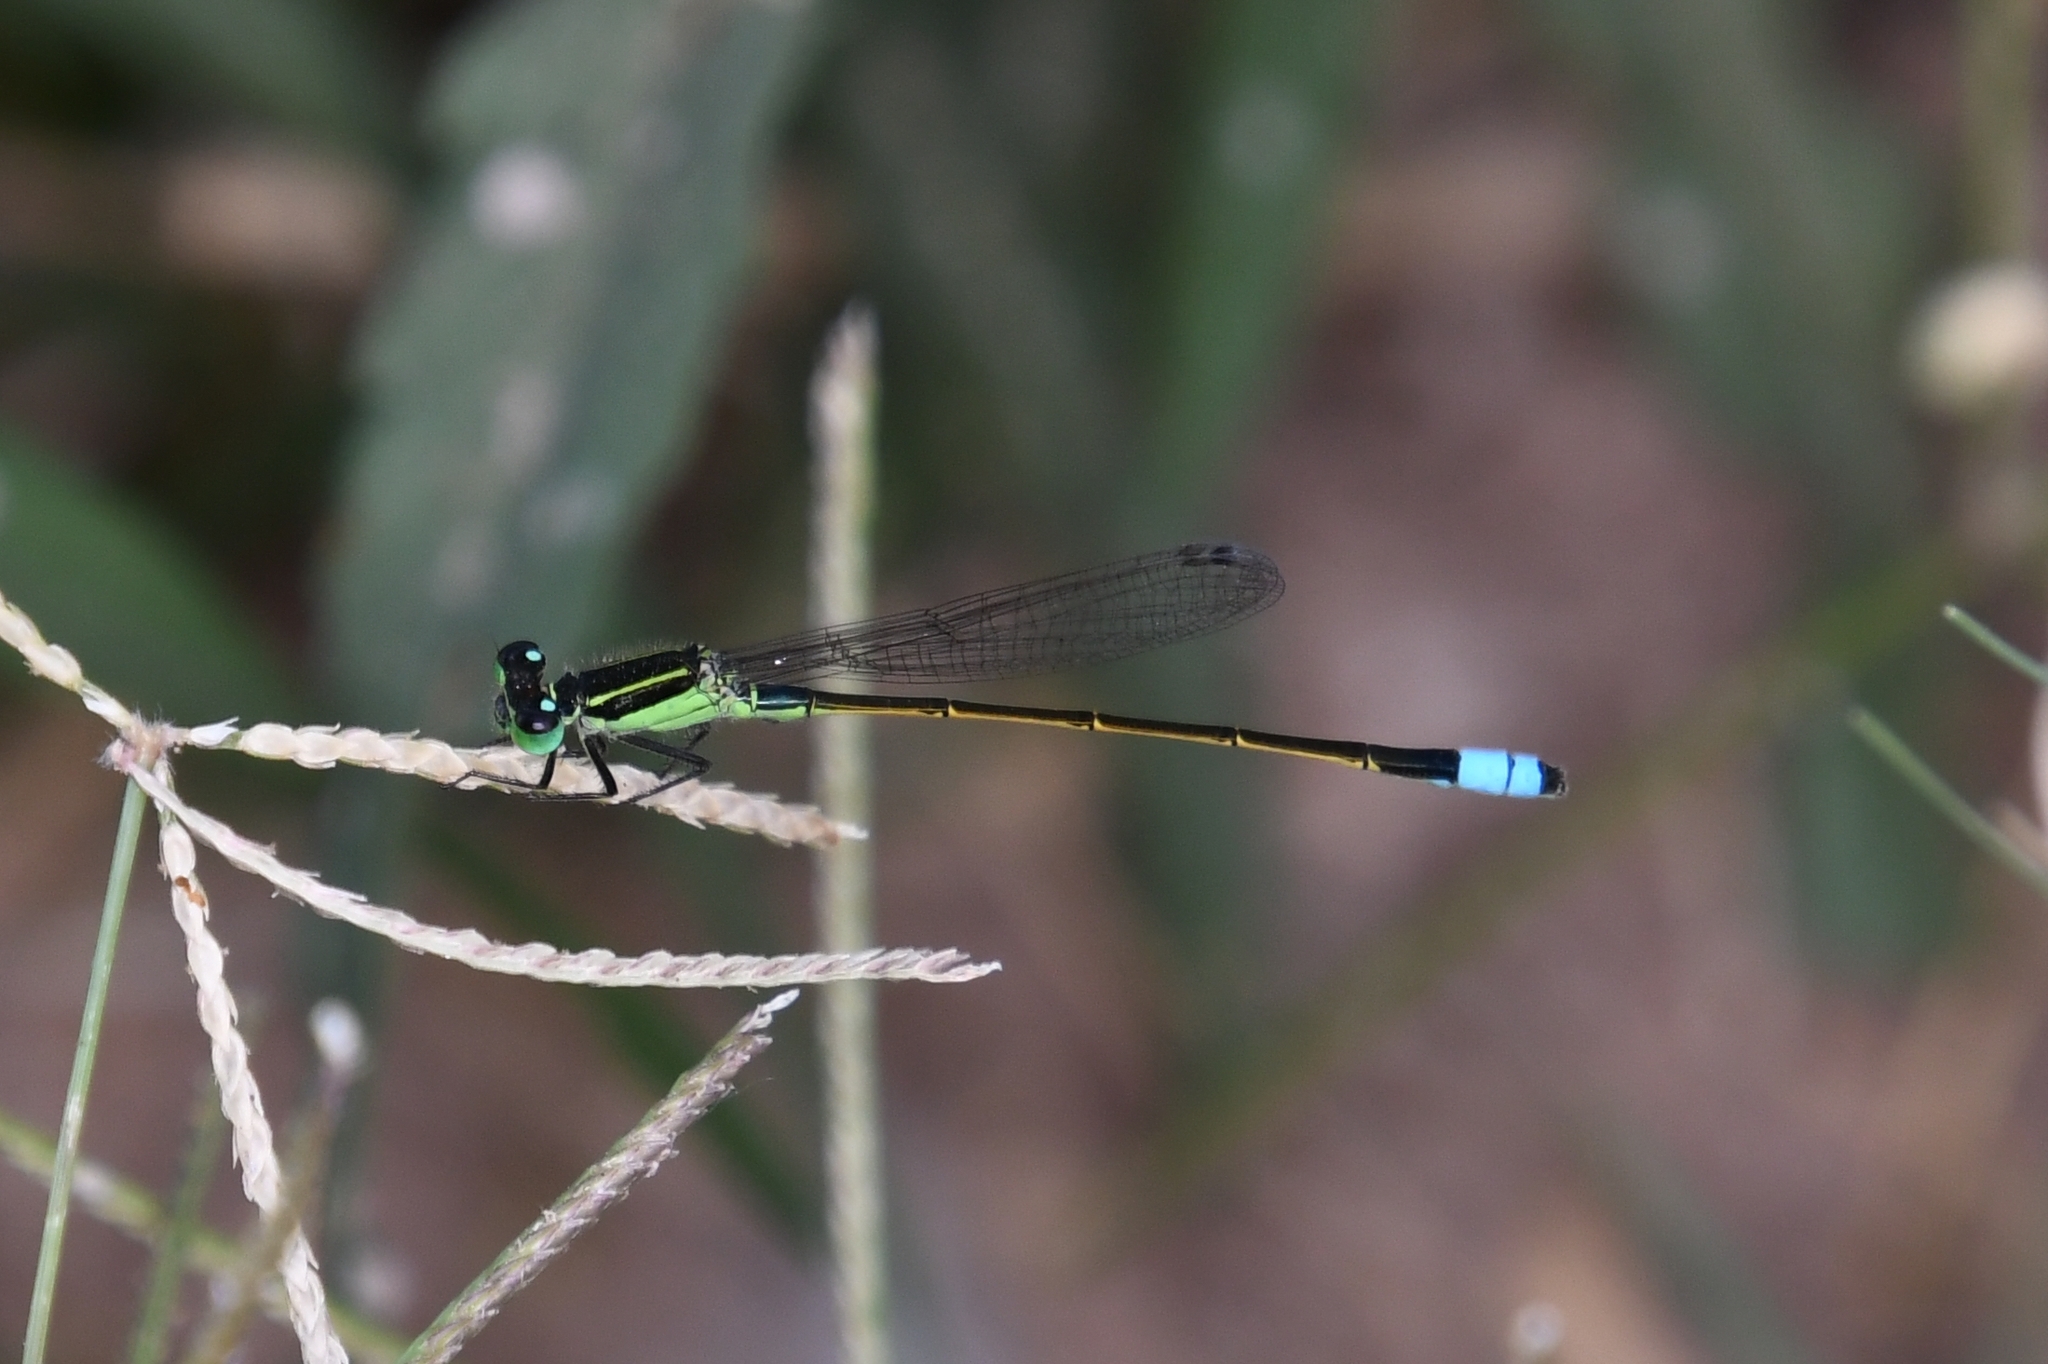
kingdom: Animalia
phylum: Arthropoda
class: Insecta
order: Odonata
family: Coenagrionidae
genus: Ischnura
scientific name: Ischnura ramburii
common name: Rambur's forktail
